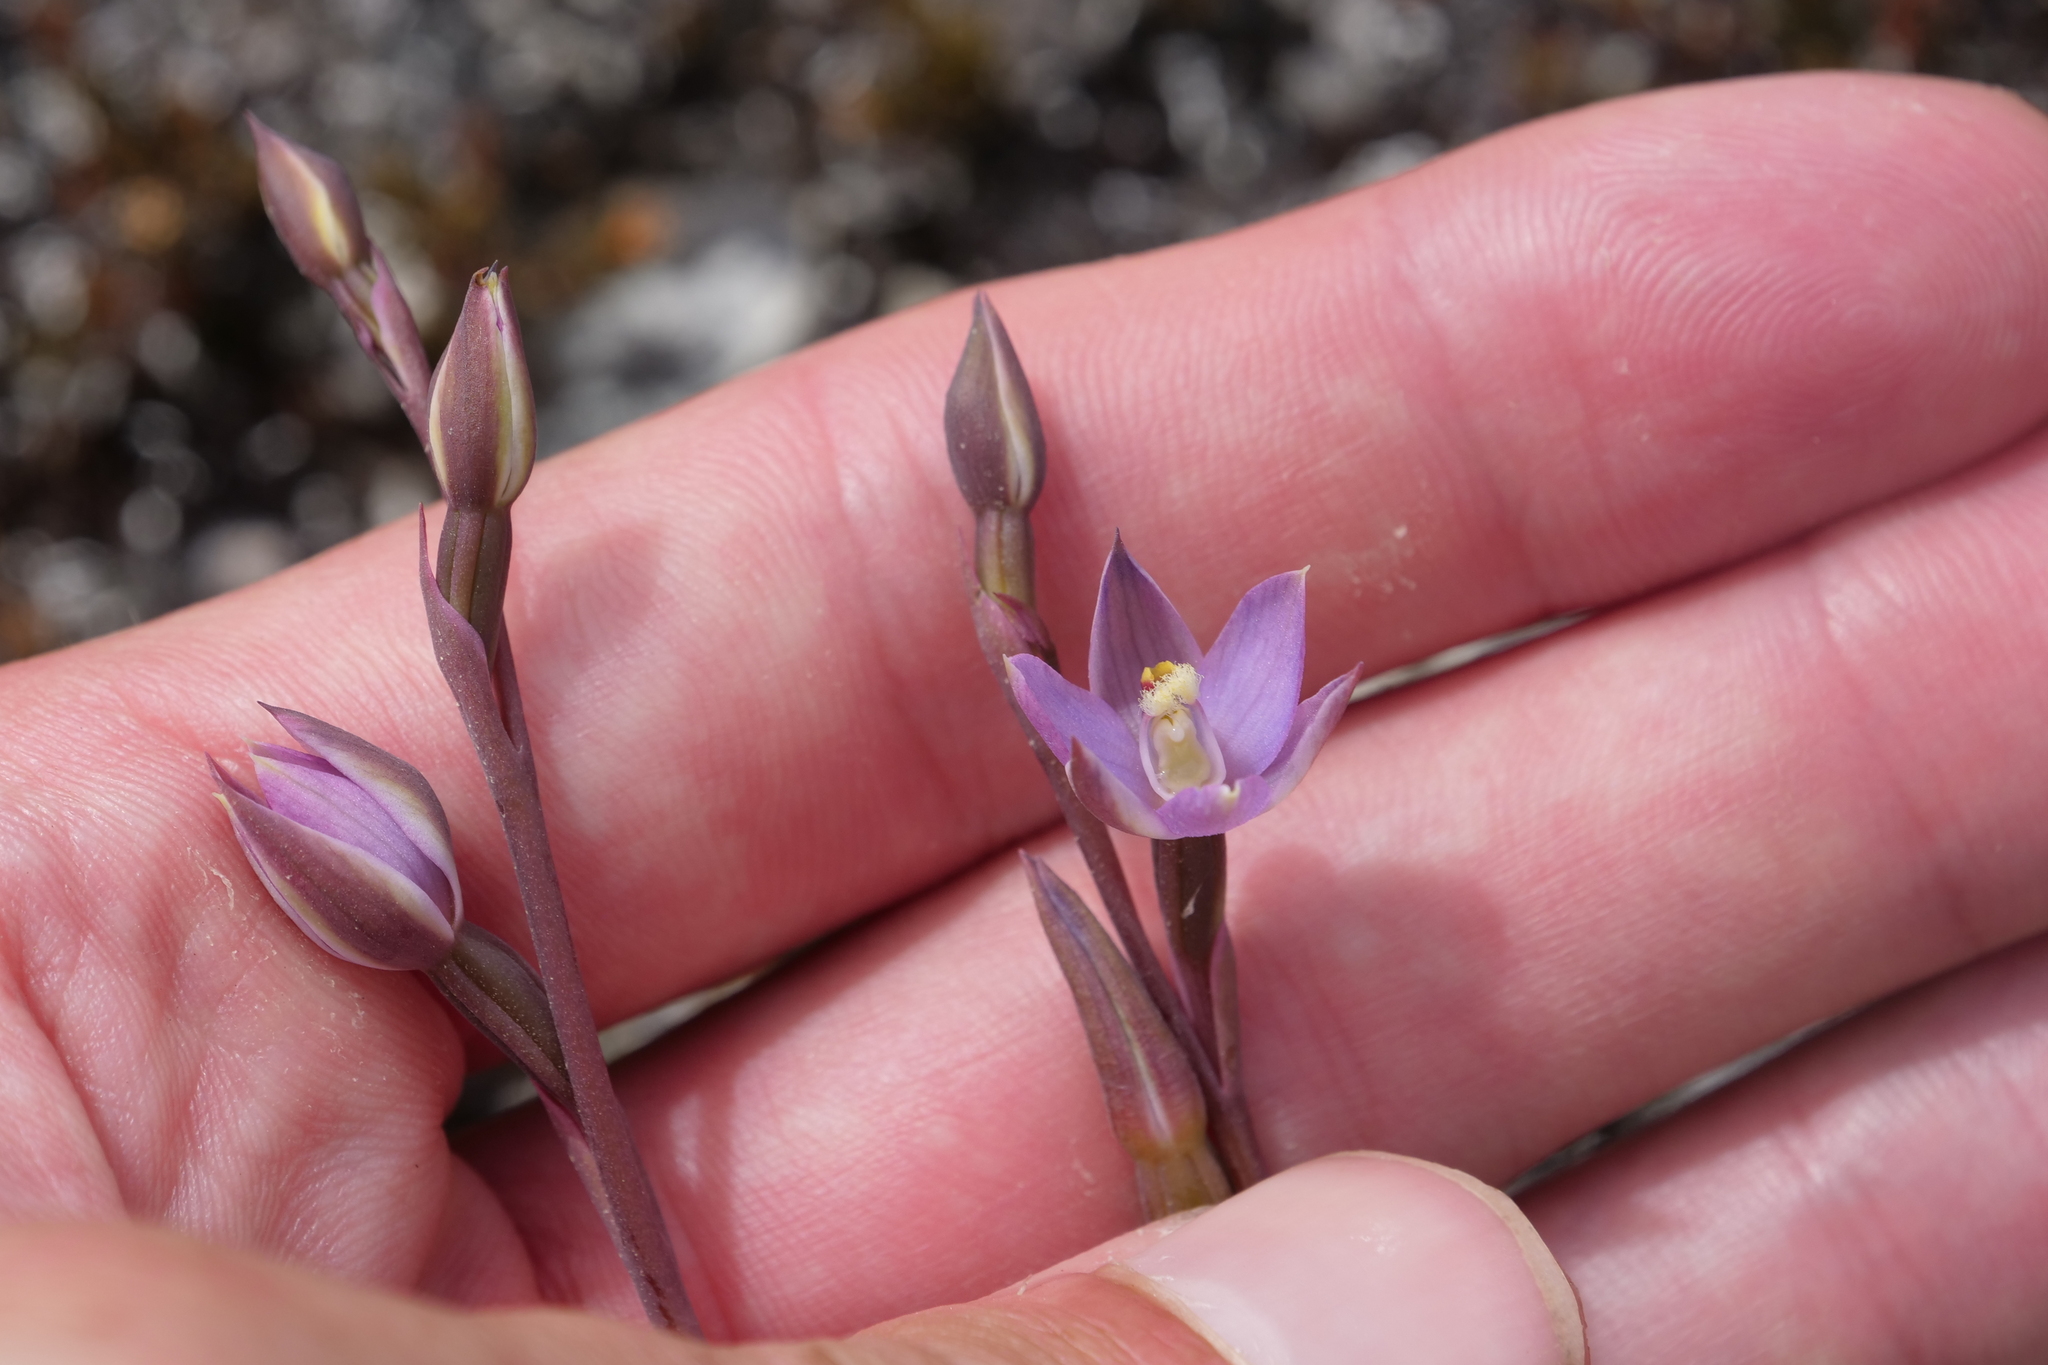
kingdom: Plantae
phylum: Tracheophyta
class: Liliopsida
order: Asparagales
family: Orchidaceae
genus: Thelymitra
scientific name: Thelymitra hatchii
